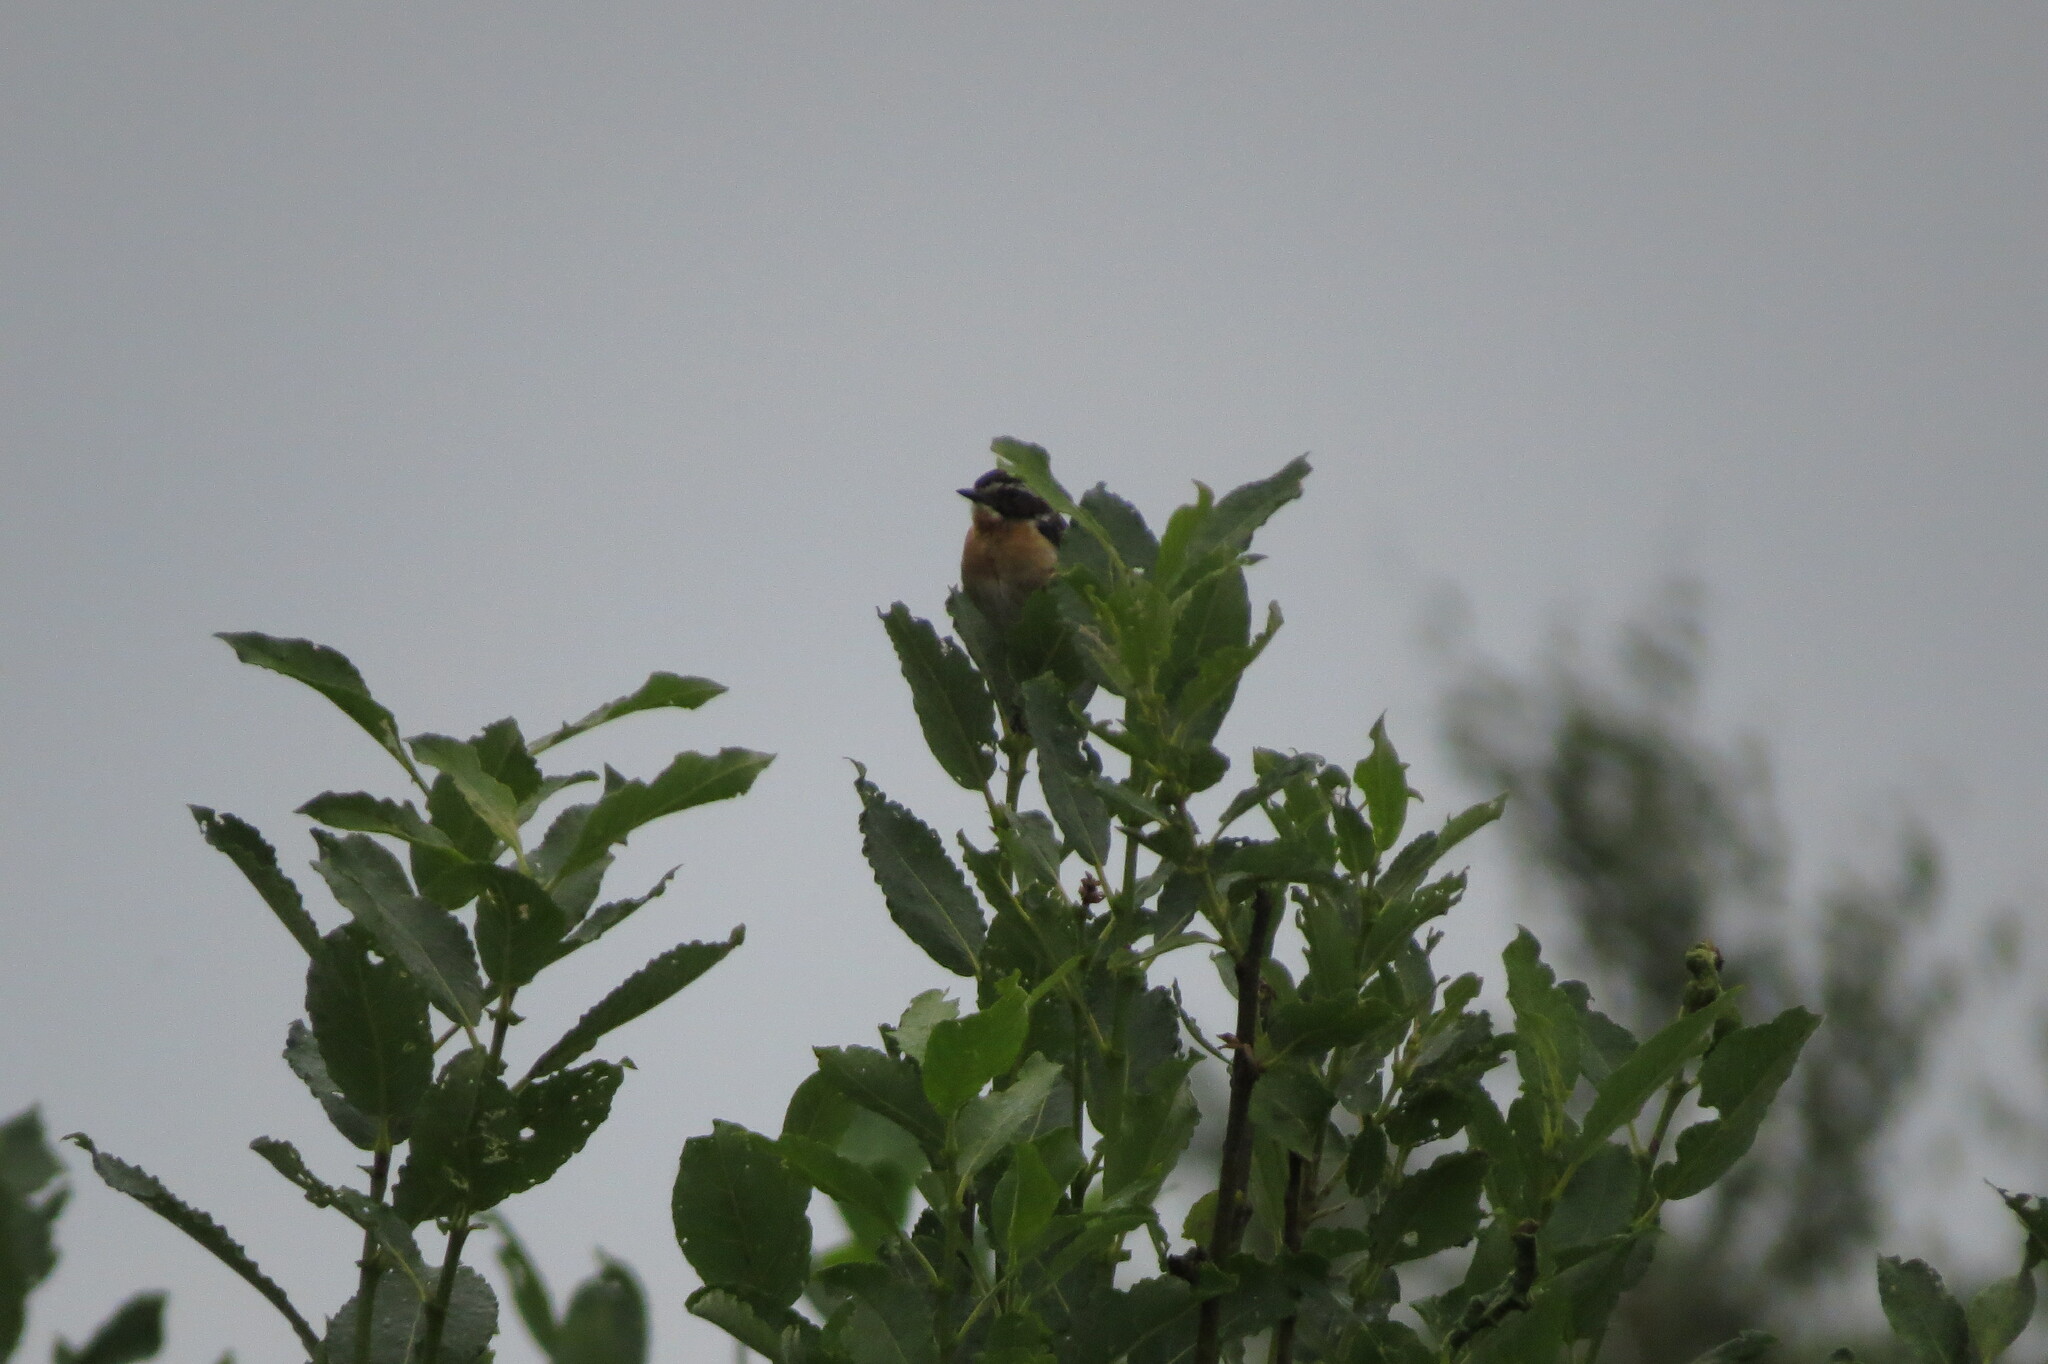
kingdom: Animalia
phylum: Chordata
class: Aves
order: Passeriformes
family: Muscicapidae
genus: Saxicola
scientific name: Saxicola rubetra
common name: Whinchat
